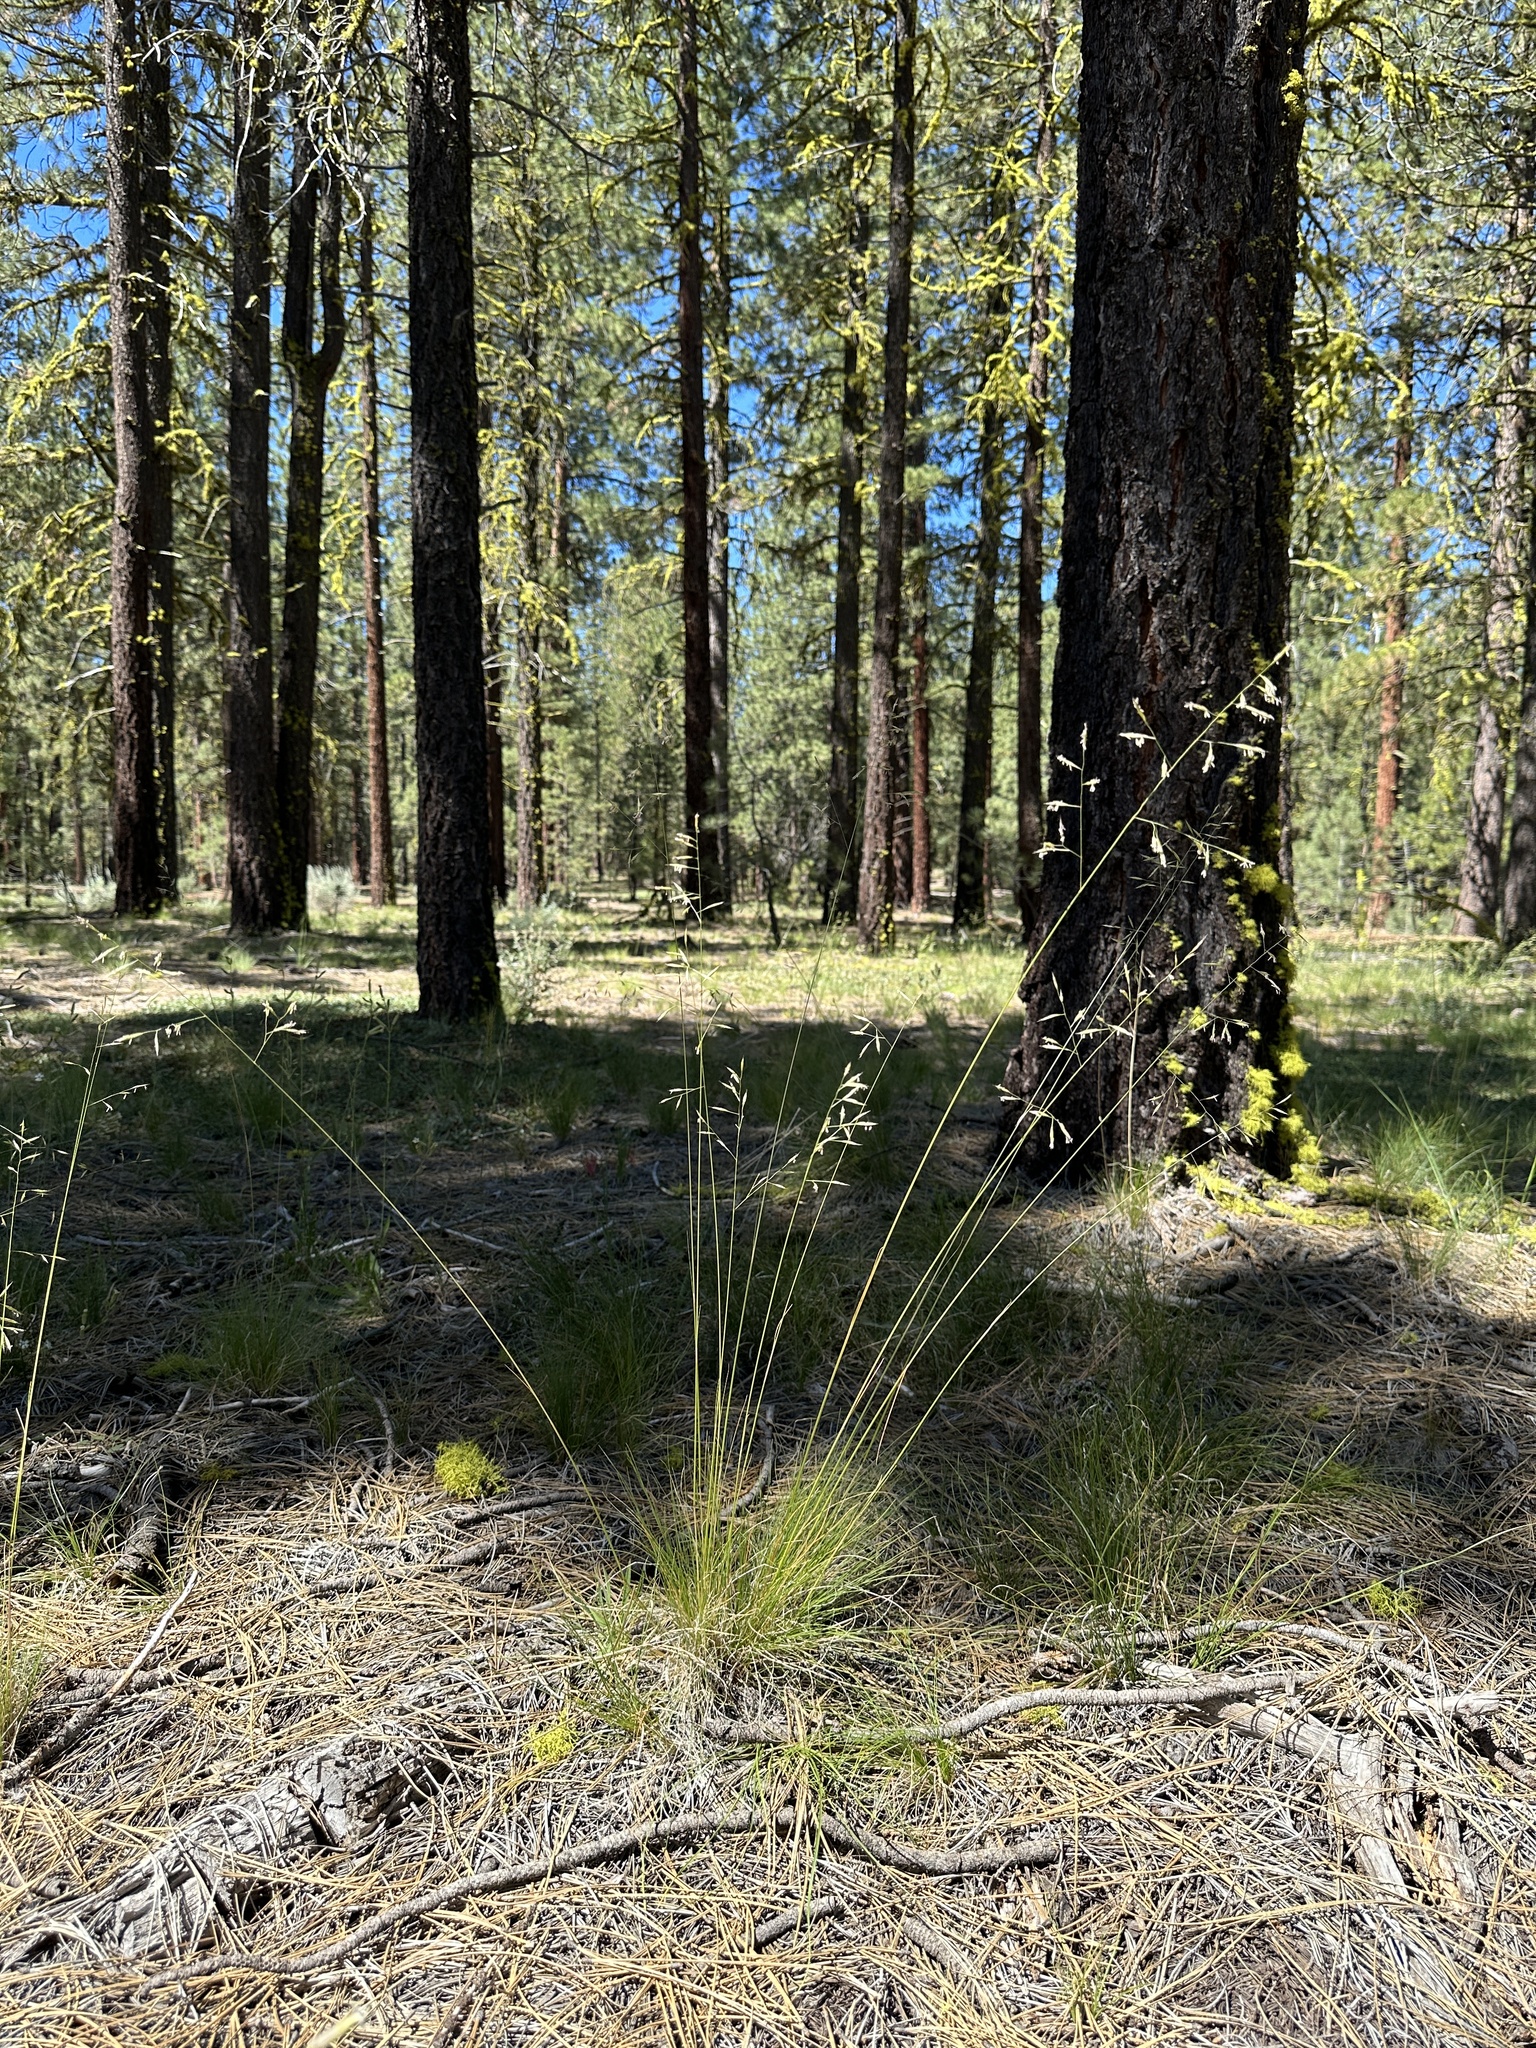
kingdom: Plantae
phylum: Tracheophyta
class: Liliopsida
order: Poales
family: Poaceae
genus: Festuca
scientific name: Festuca occidentalis
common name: Western fescue
